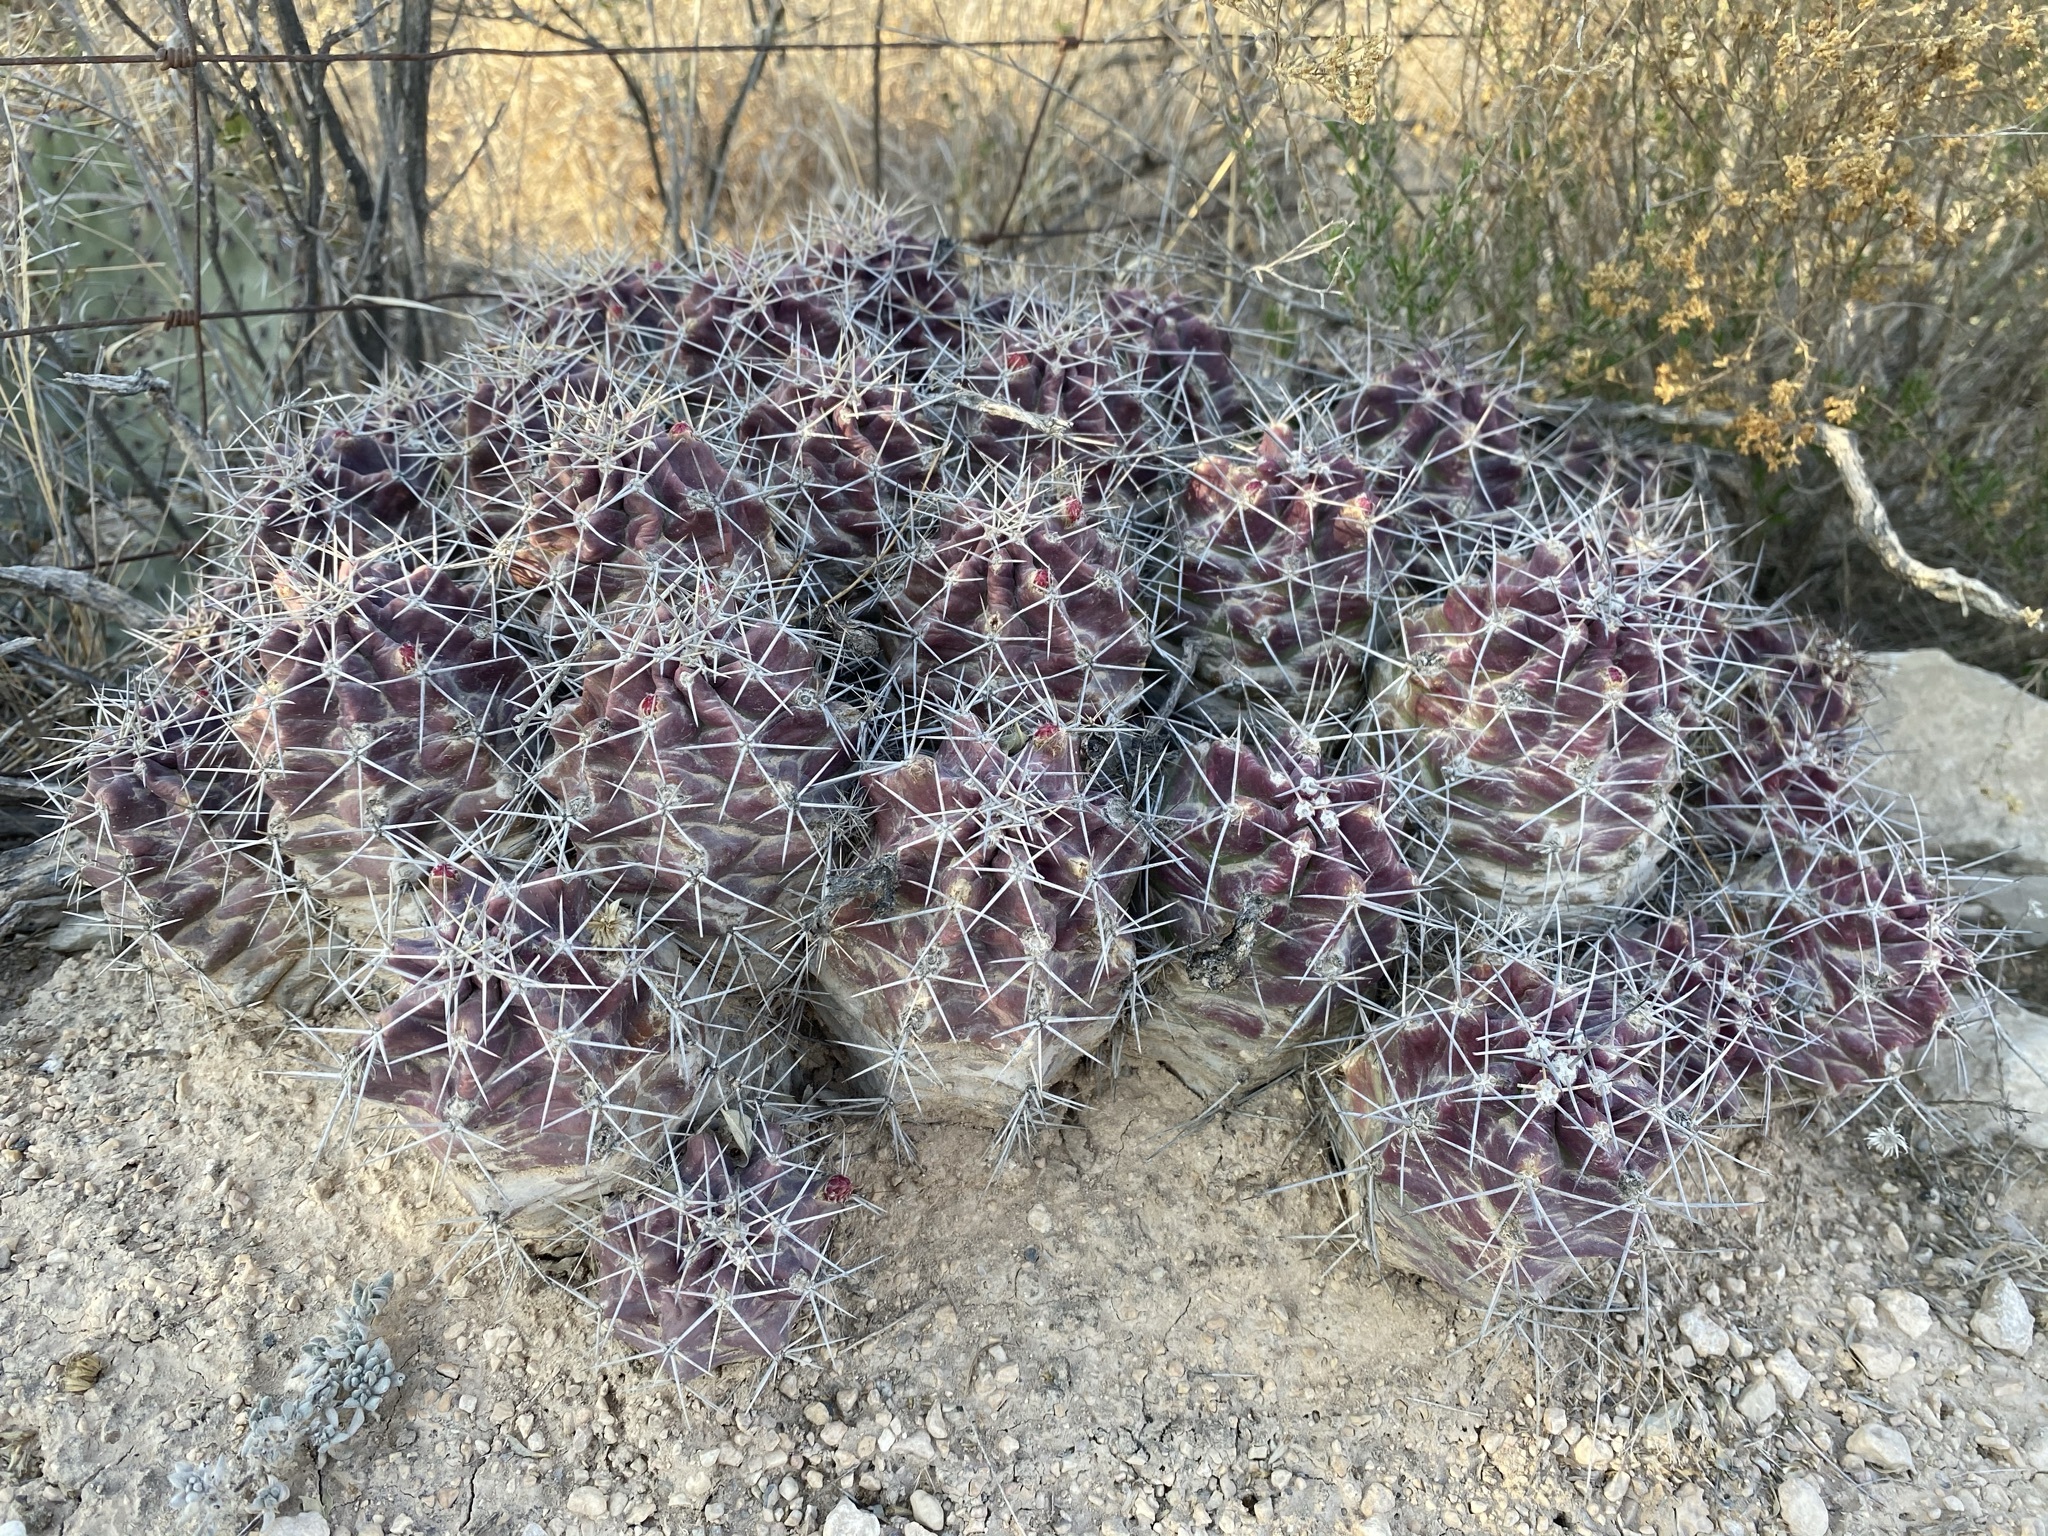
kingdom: Plantae
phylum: Tracheophyta
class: Magnoliopsida
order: Caryophyllales
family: Cactaceae
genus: Echinocereus
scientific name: Echinocereus coccineus
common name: Scarlet hedgehog cactus
